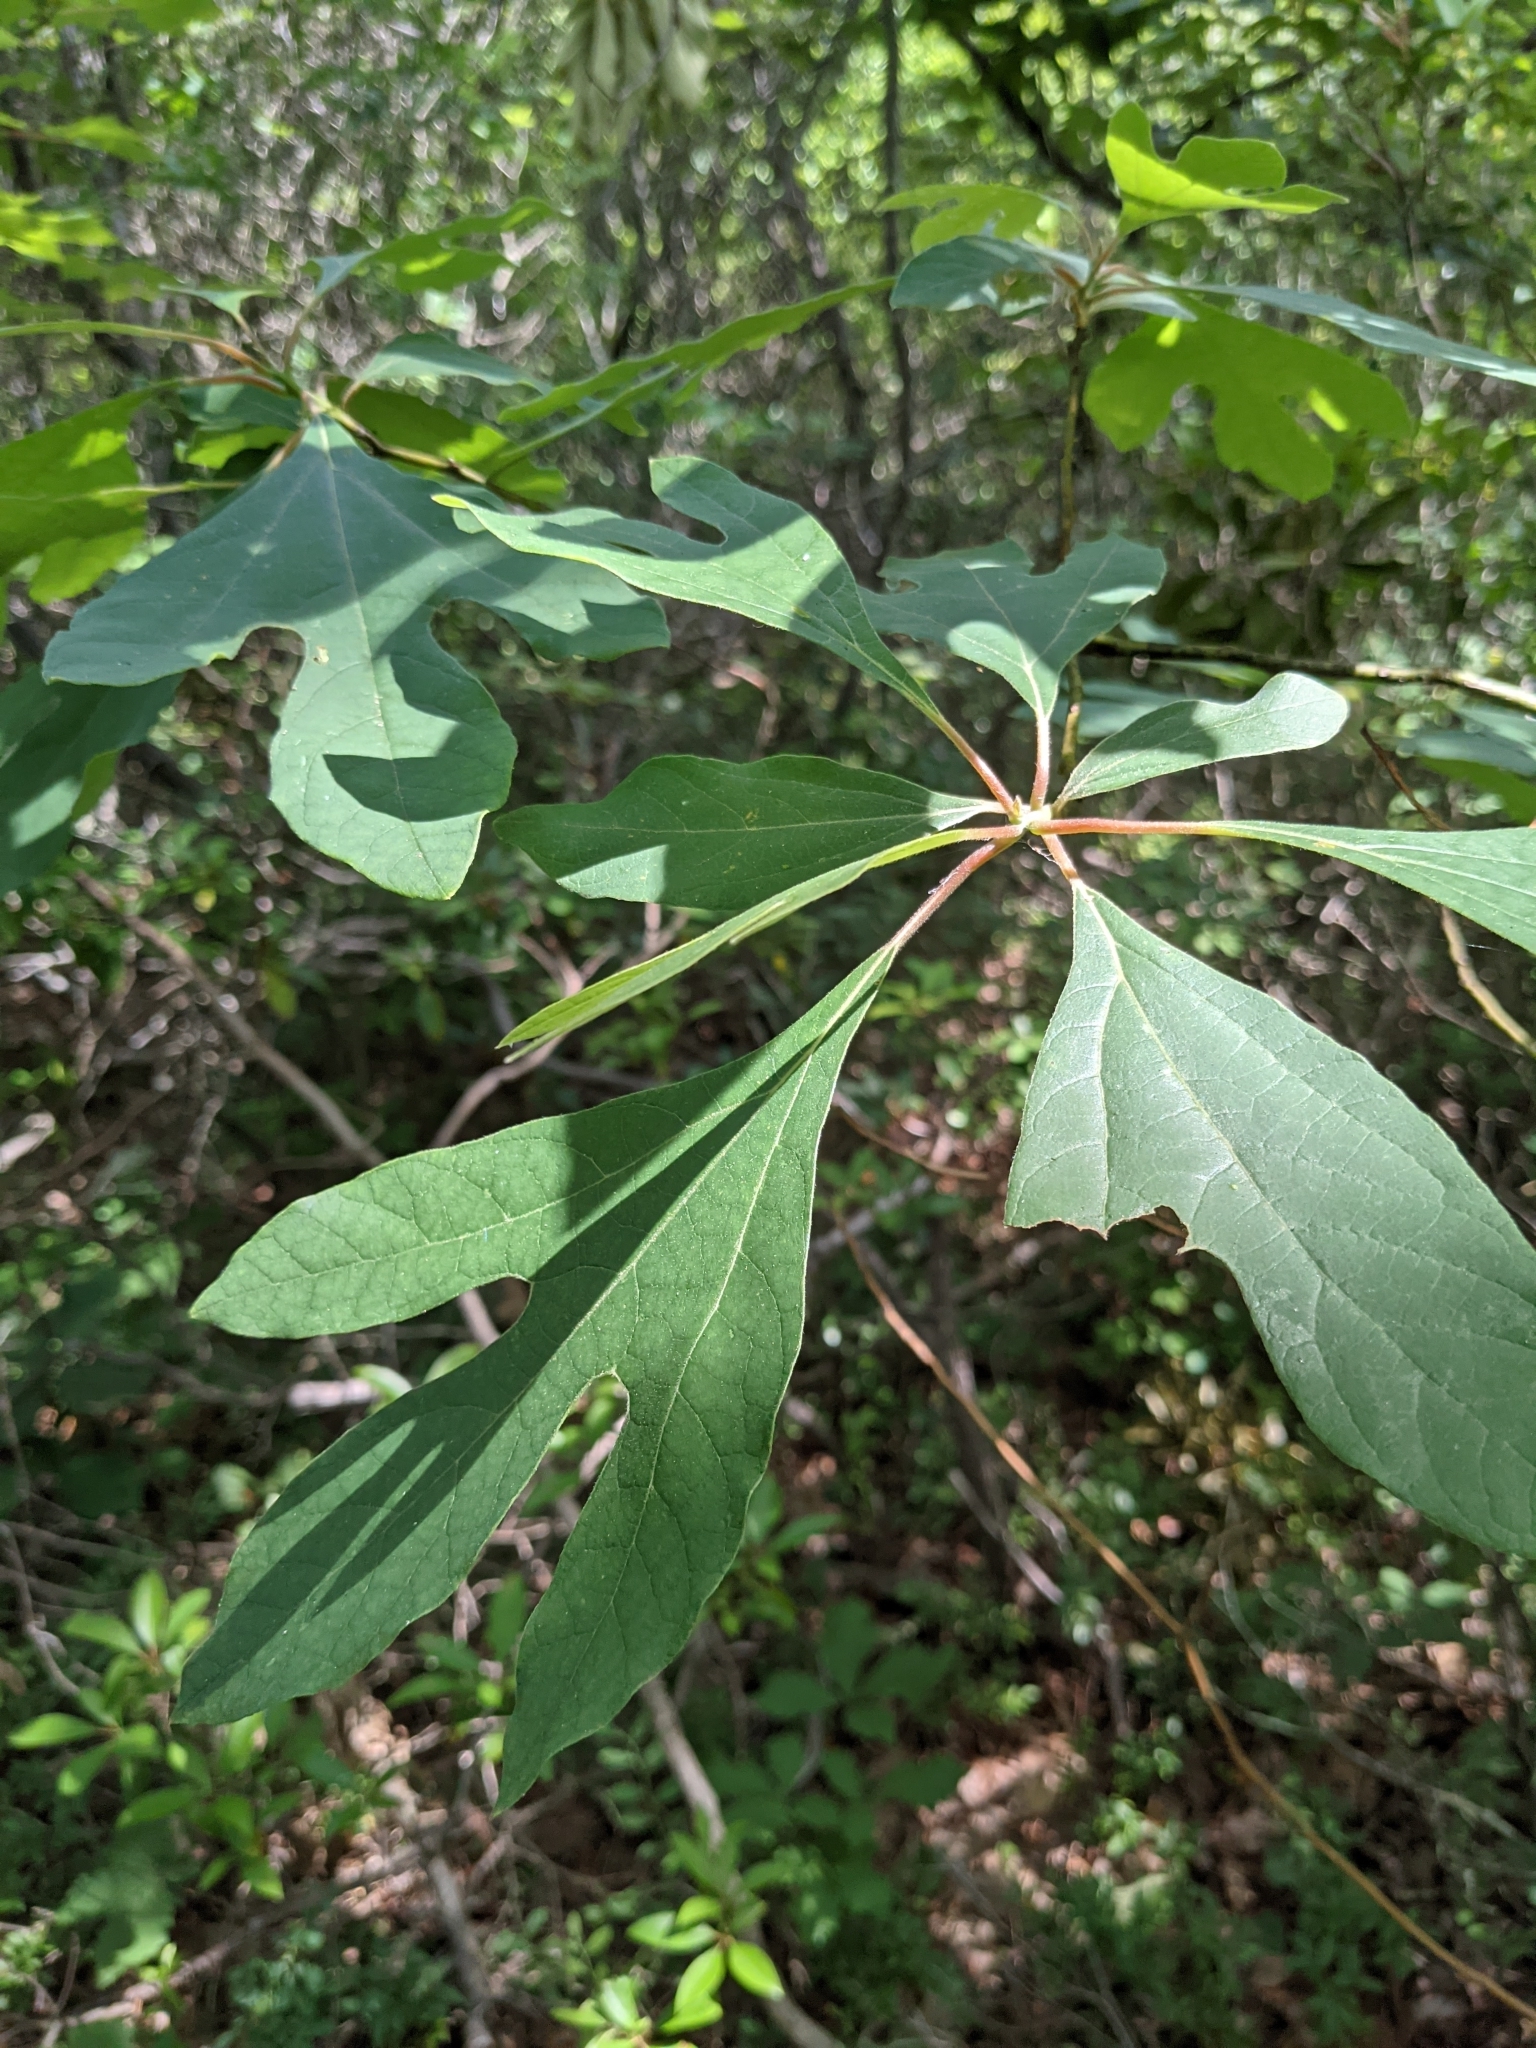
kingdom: Plantae
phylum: Tracheophyta
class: Magnoliopsida
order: Laurales
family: Lauraceae
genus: Sassafras
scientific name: Sassafras albidum
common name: Sassafras
